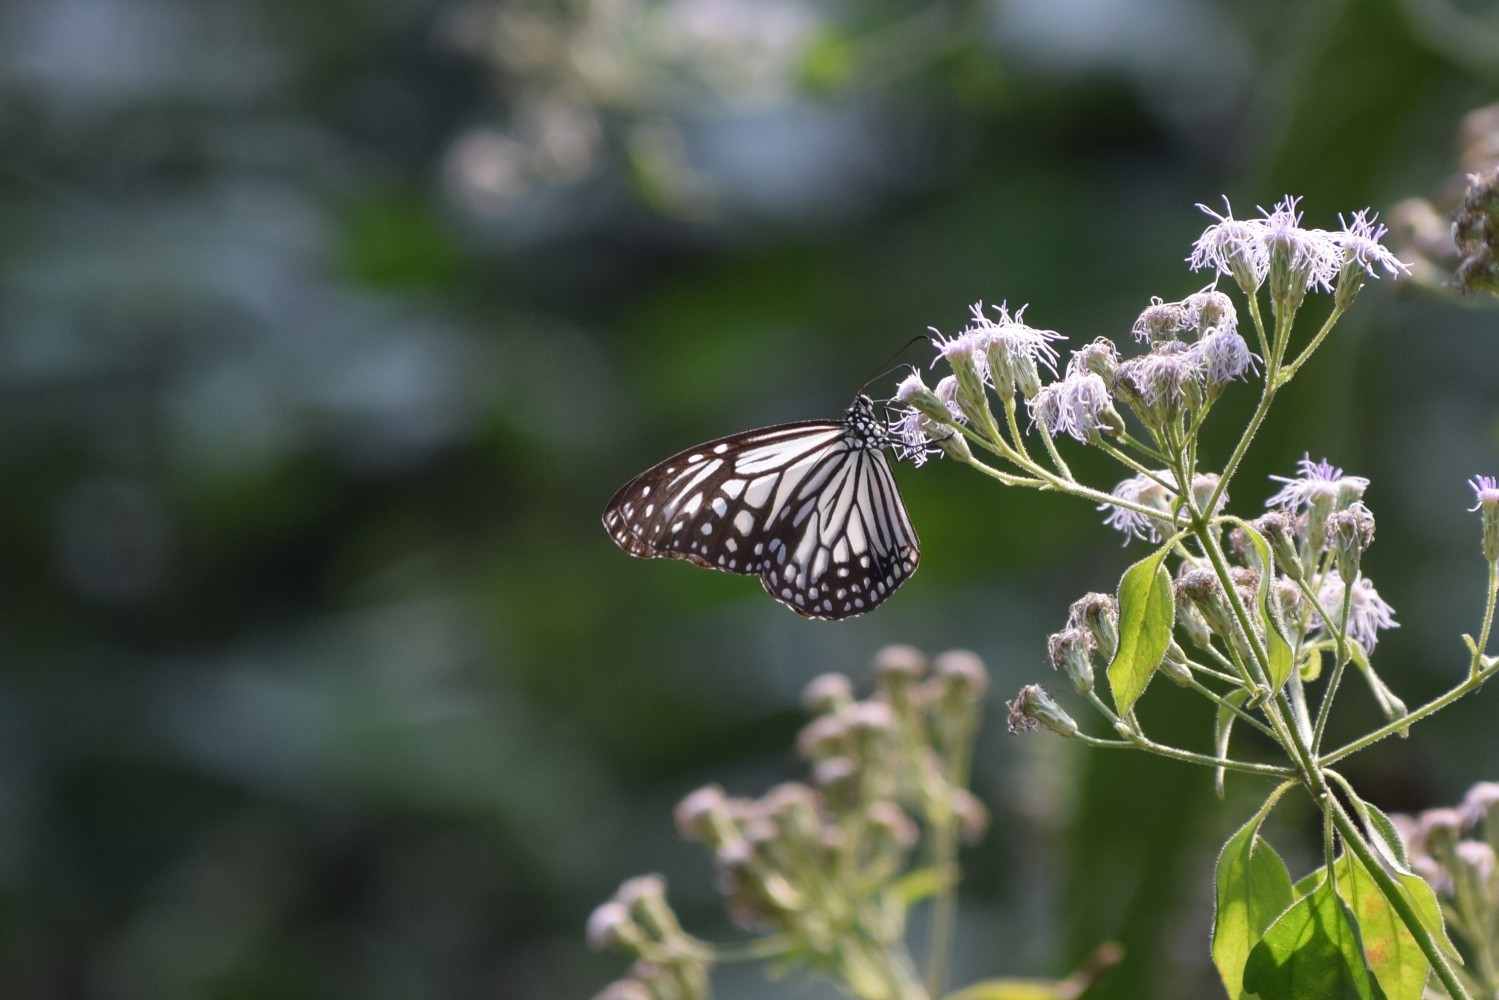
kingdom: Animalia
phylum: Arthropoda
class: Insecta
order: Lepidoptera
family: Nymphalidae
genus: Parantica
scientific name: Parantica aglea
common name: Glassy tiger
